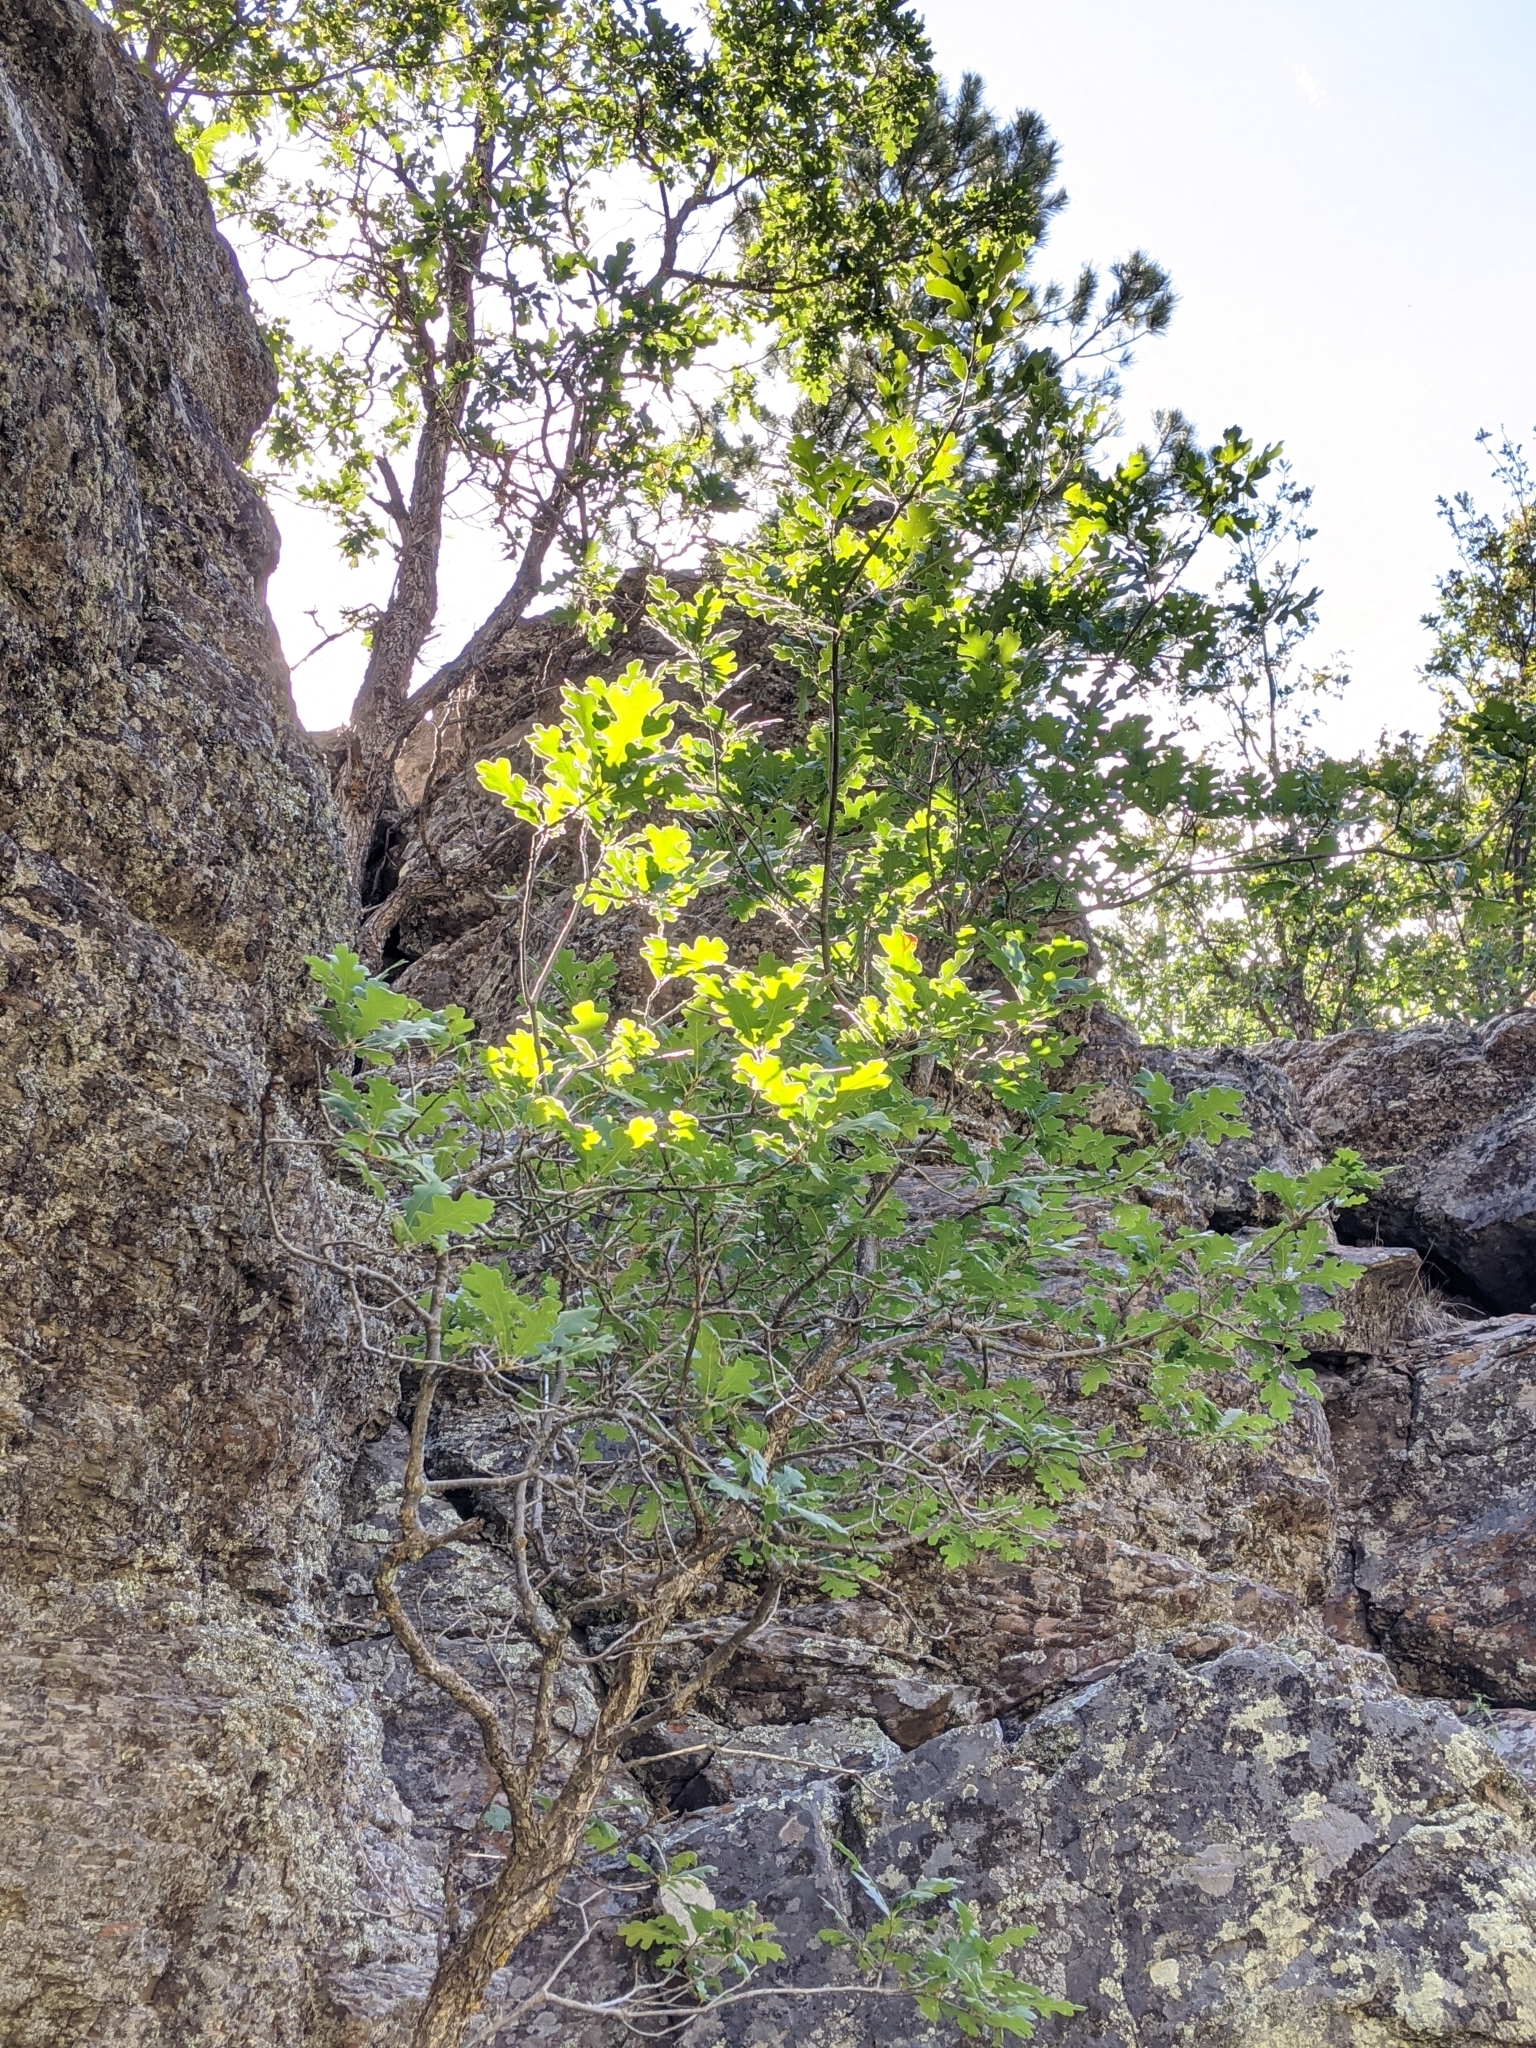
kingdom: Plantae
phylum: Tracheophyta
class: Magnoliopsida
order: Fagales
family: Fagaceae
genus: Quercus
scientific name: Quercus gambelii
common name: Gambel oak
